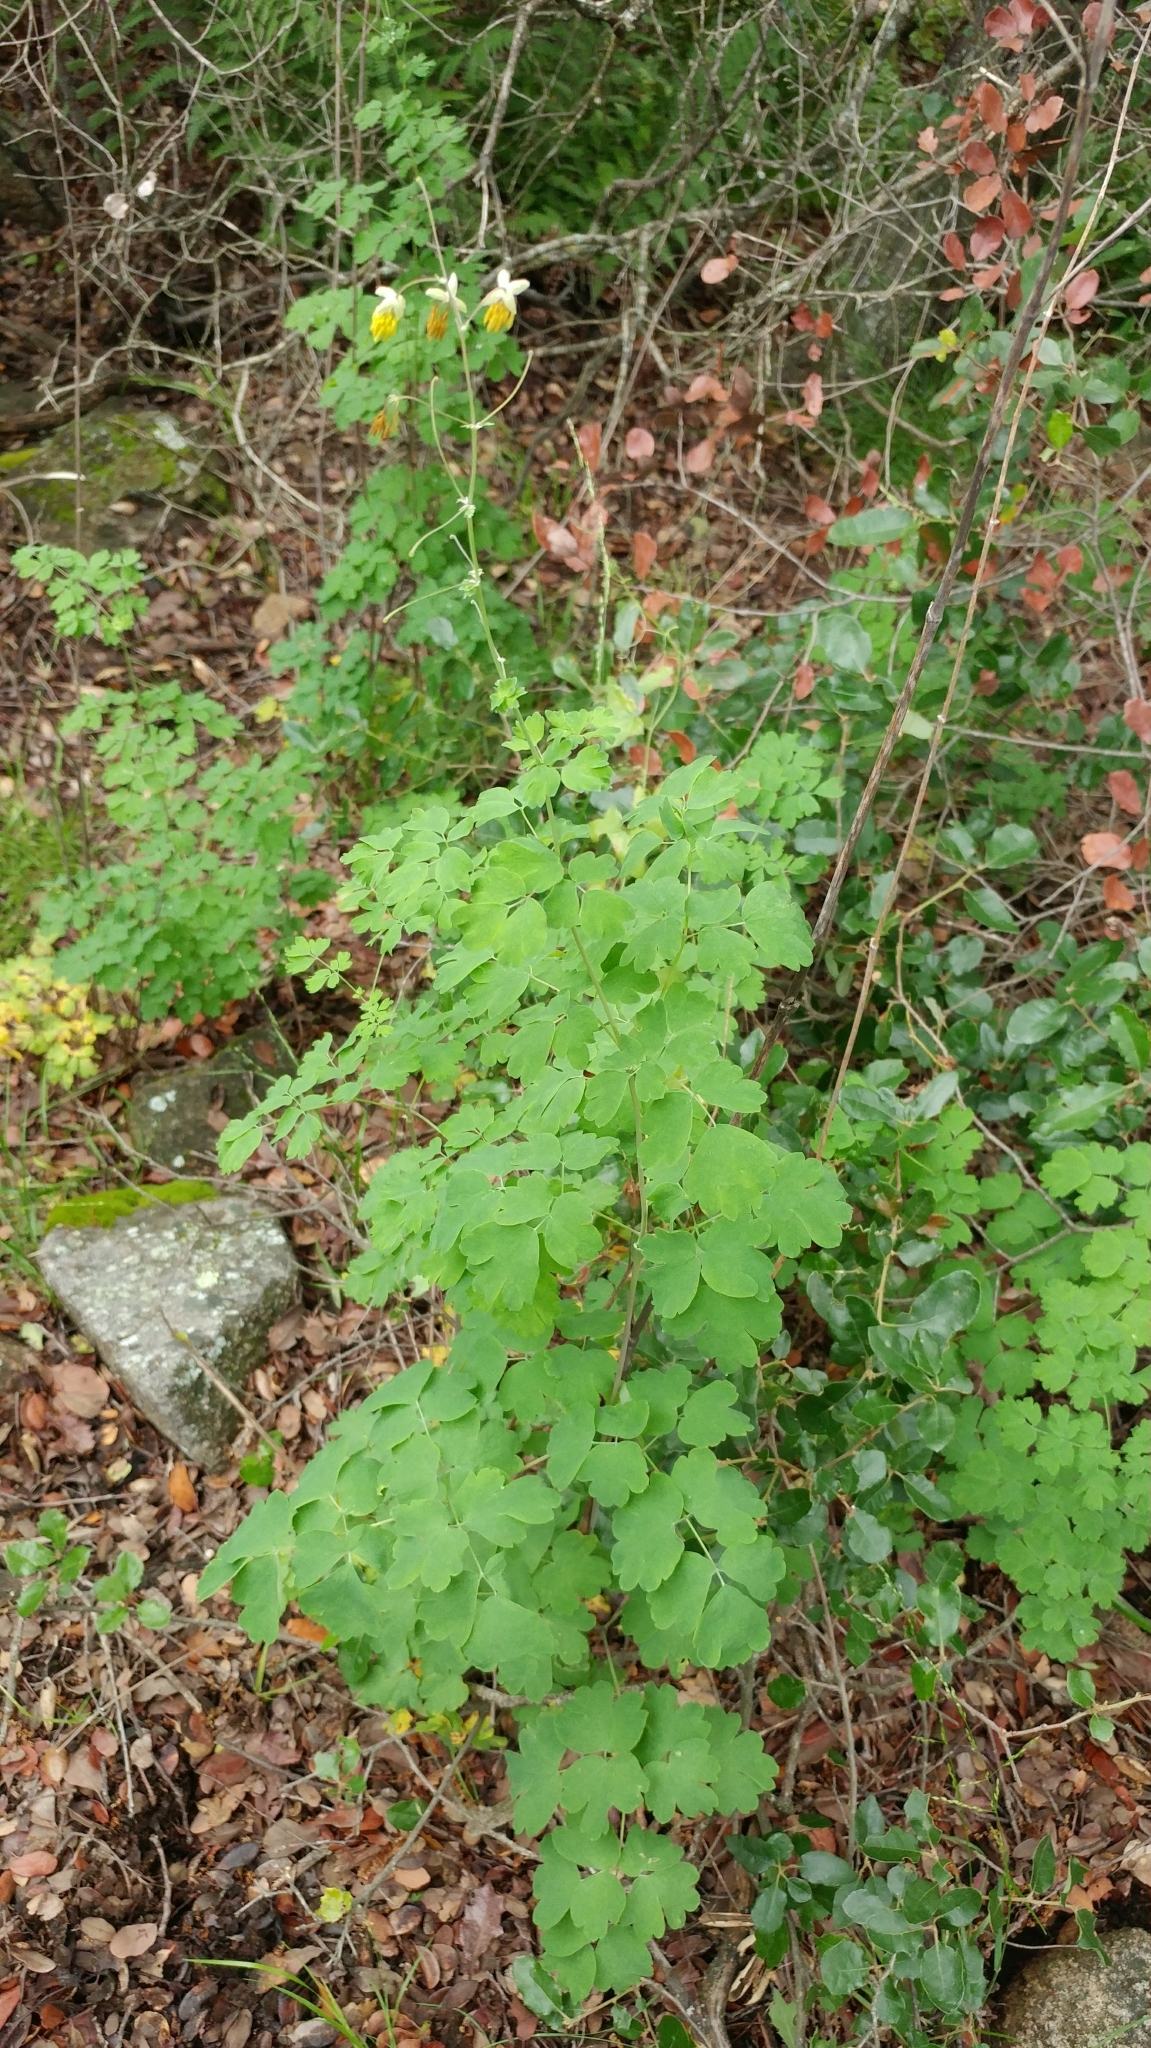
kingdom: Plantae
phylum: Tracheophyta
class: Magnoliopsida
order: Ranunculales
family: Ranunculaceae
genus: Thalictrum
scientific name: Thalictrum fendleri
